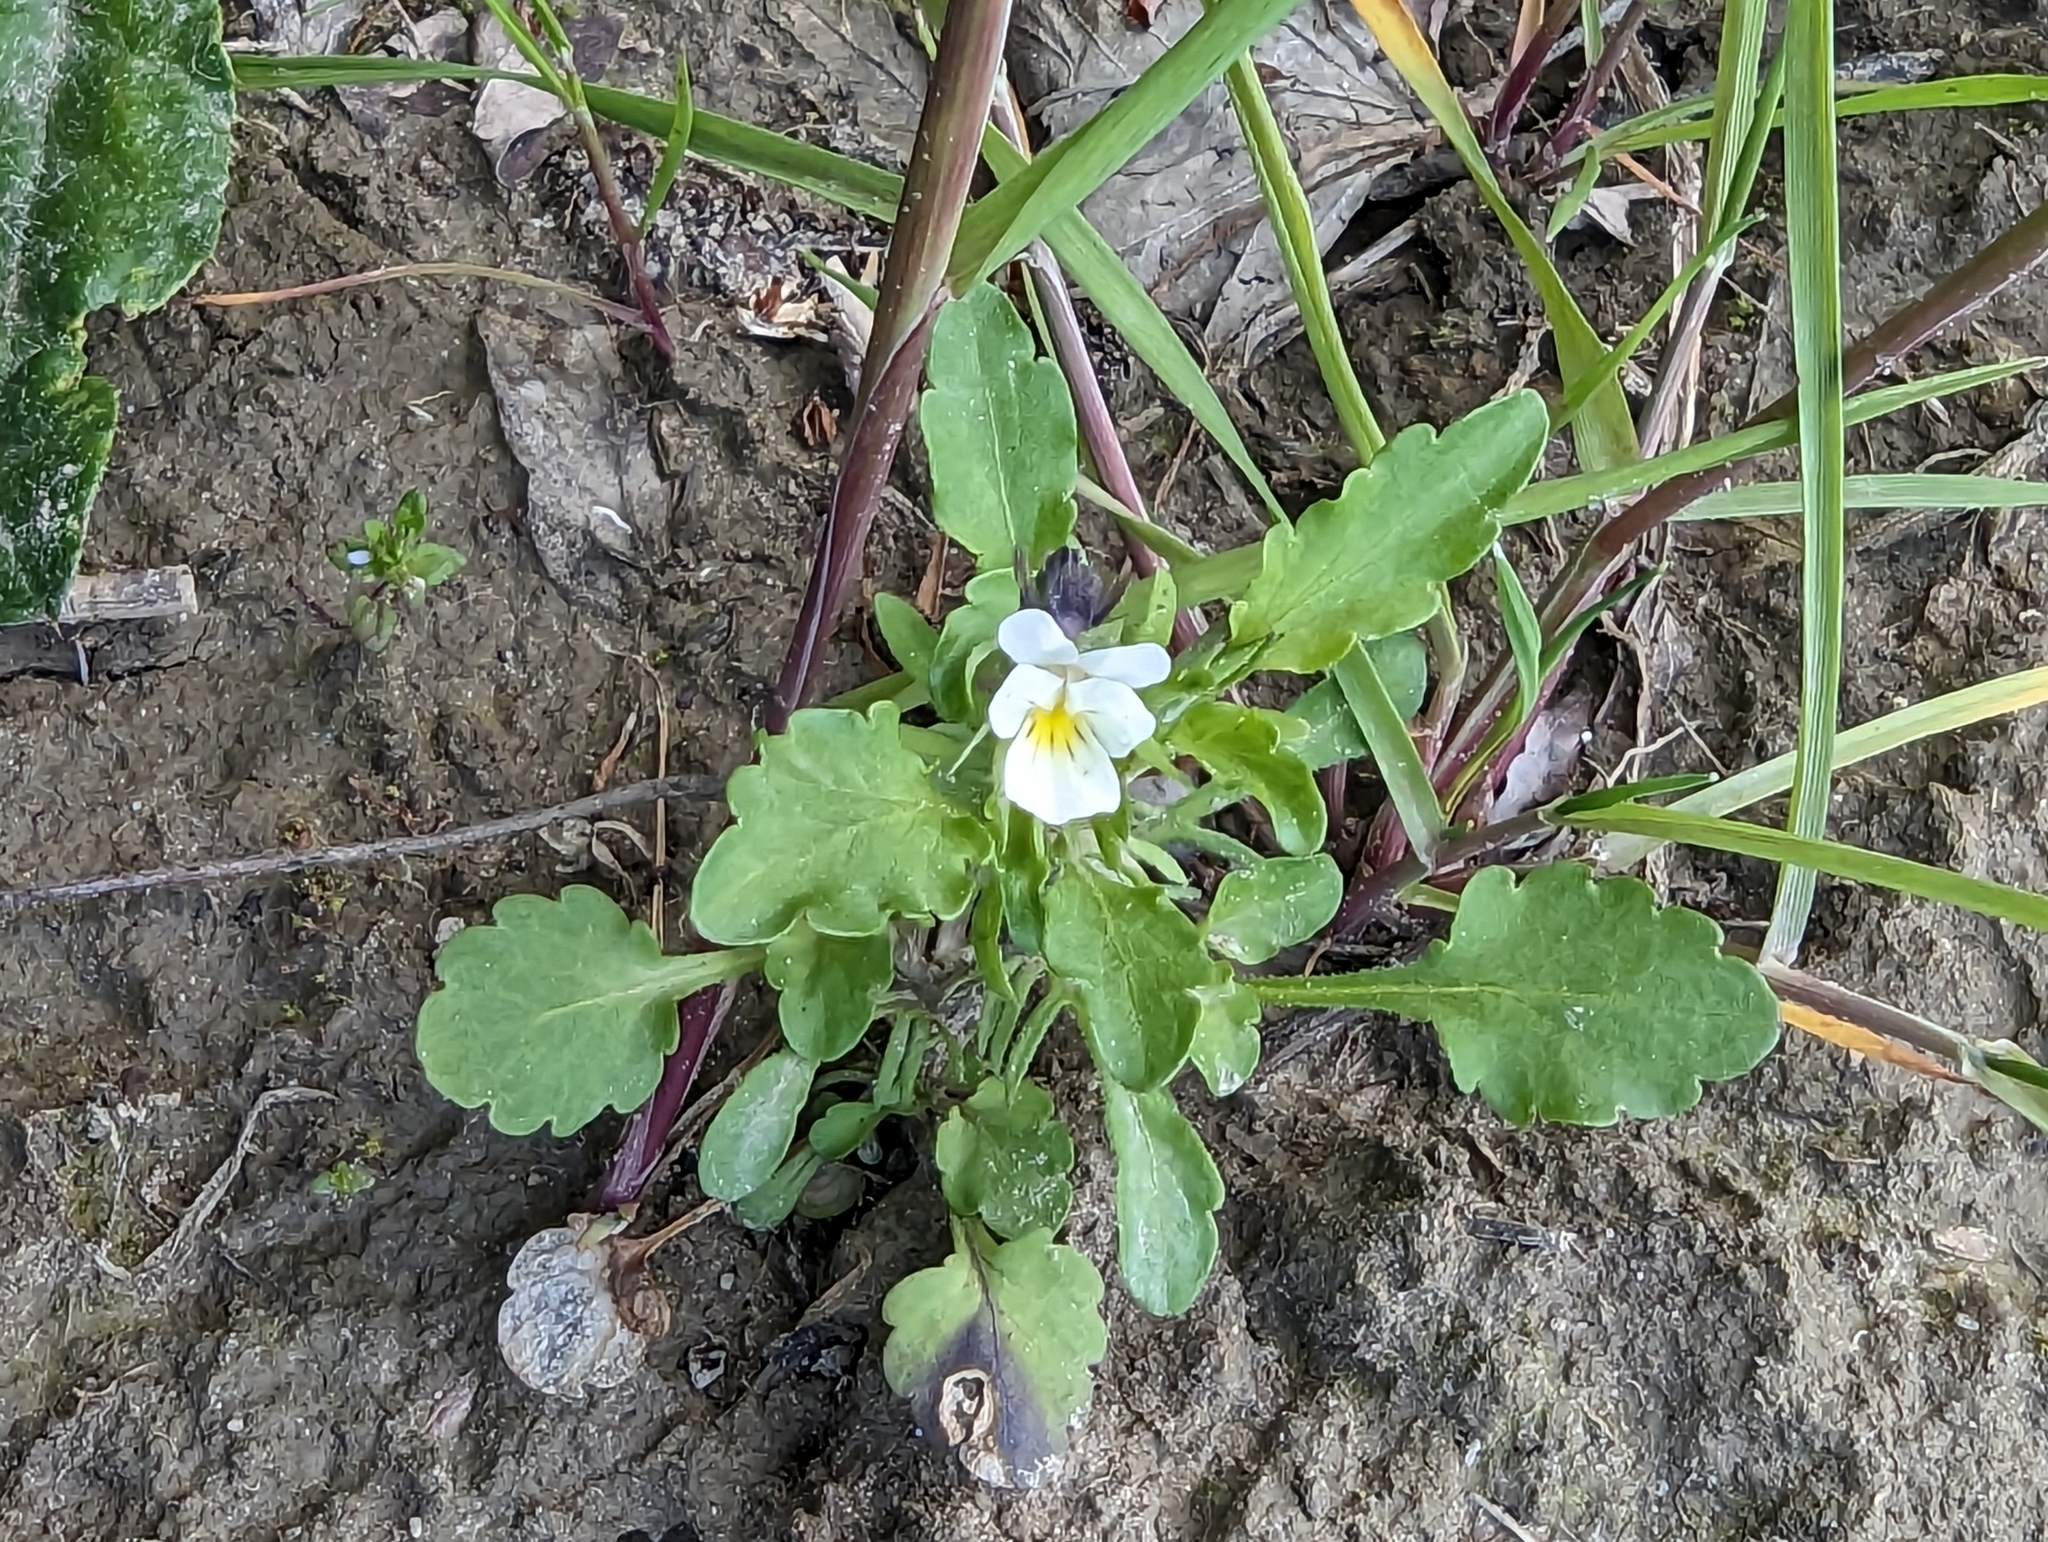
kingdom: Plantae
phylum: Tracheophyta
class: Magnoliopsida
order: Malpighiales
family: Violaceae
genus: Viola
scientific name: Viola arvensis
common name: Field pansy
